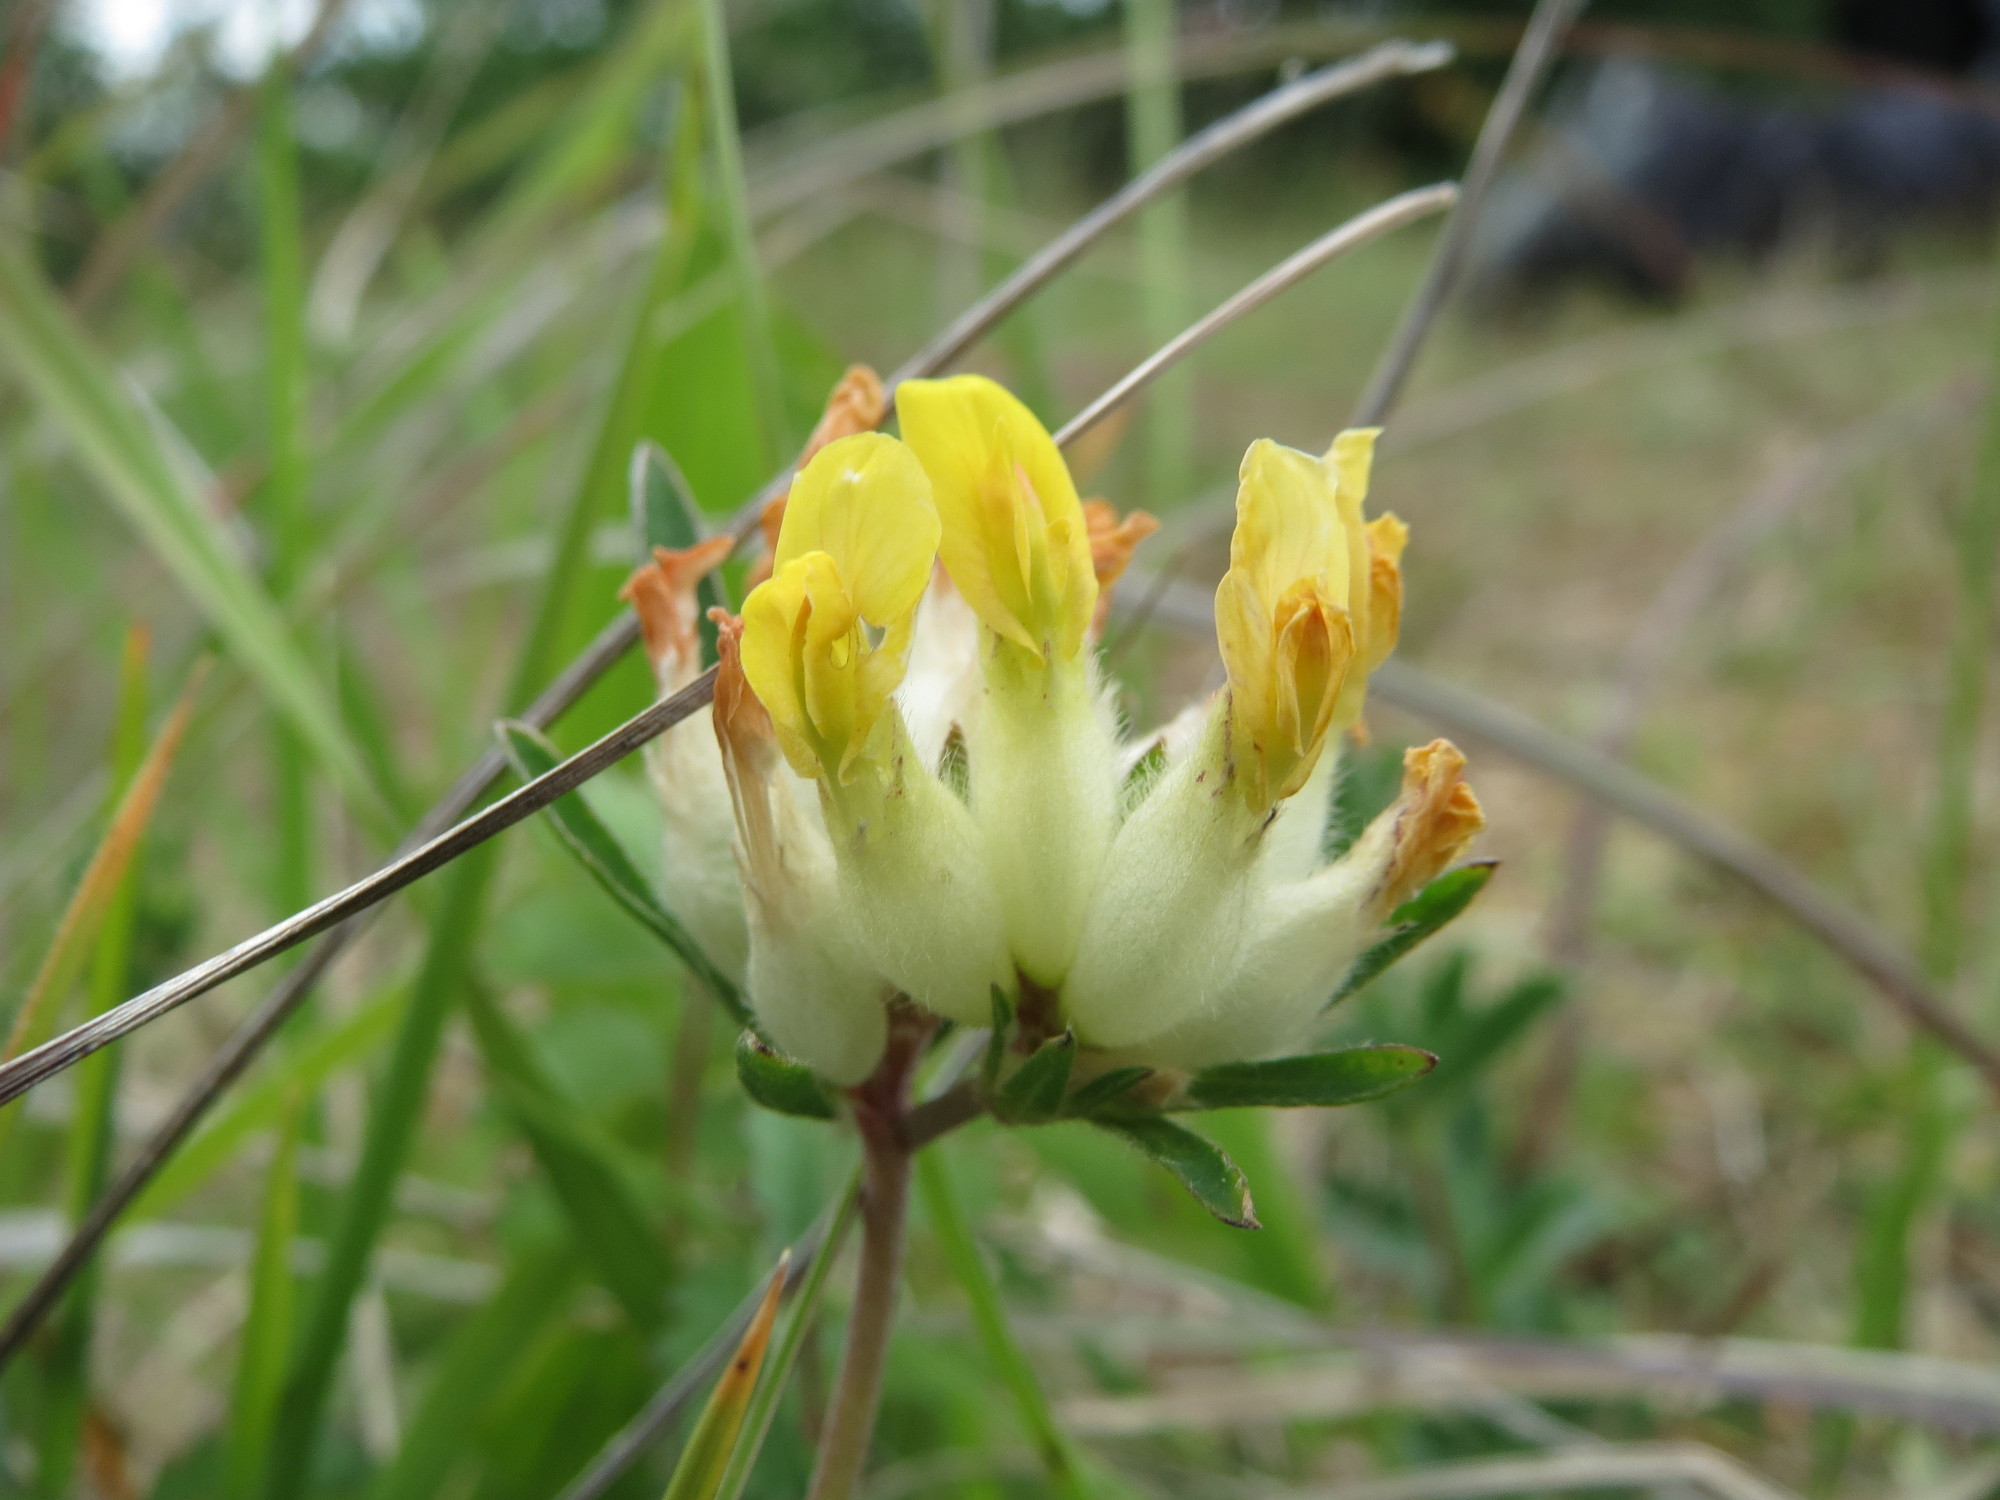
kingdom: Plantae
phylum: Tracheophyta
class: Magnoliopsida
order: Fabales
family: Fabaceae
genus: Anthyllis
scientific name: Anthyllis vulneraria
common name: Kidney vetch
